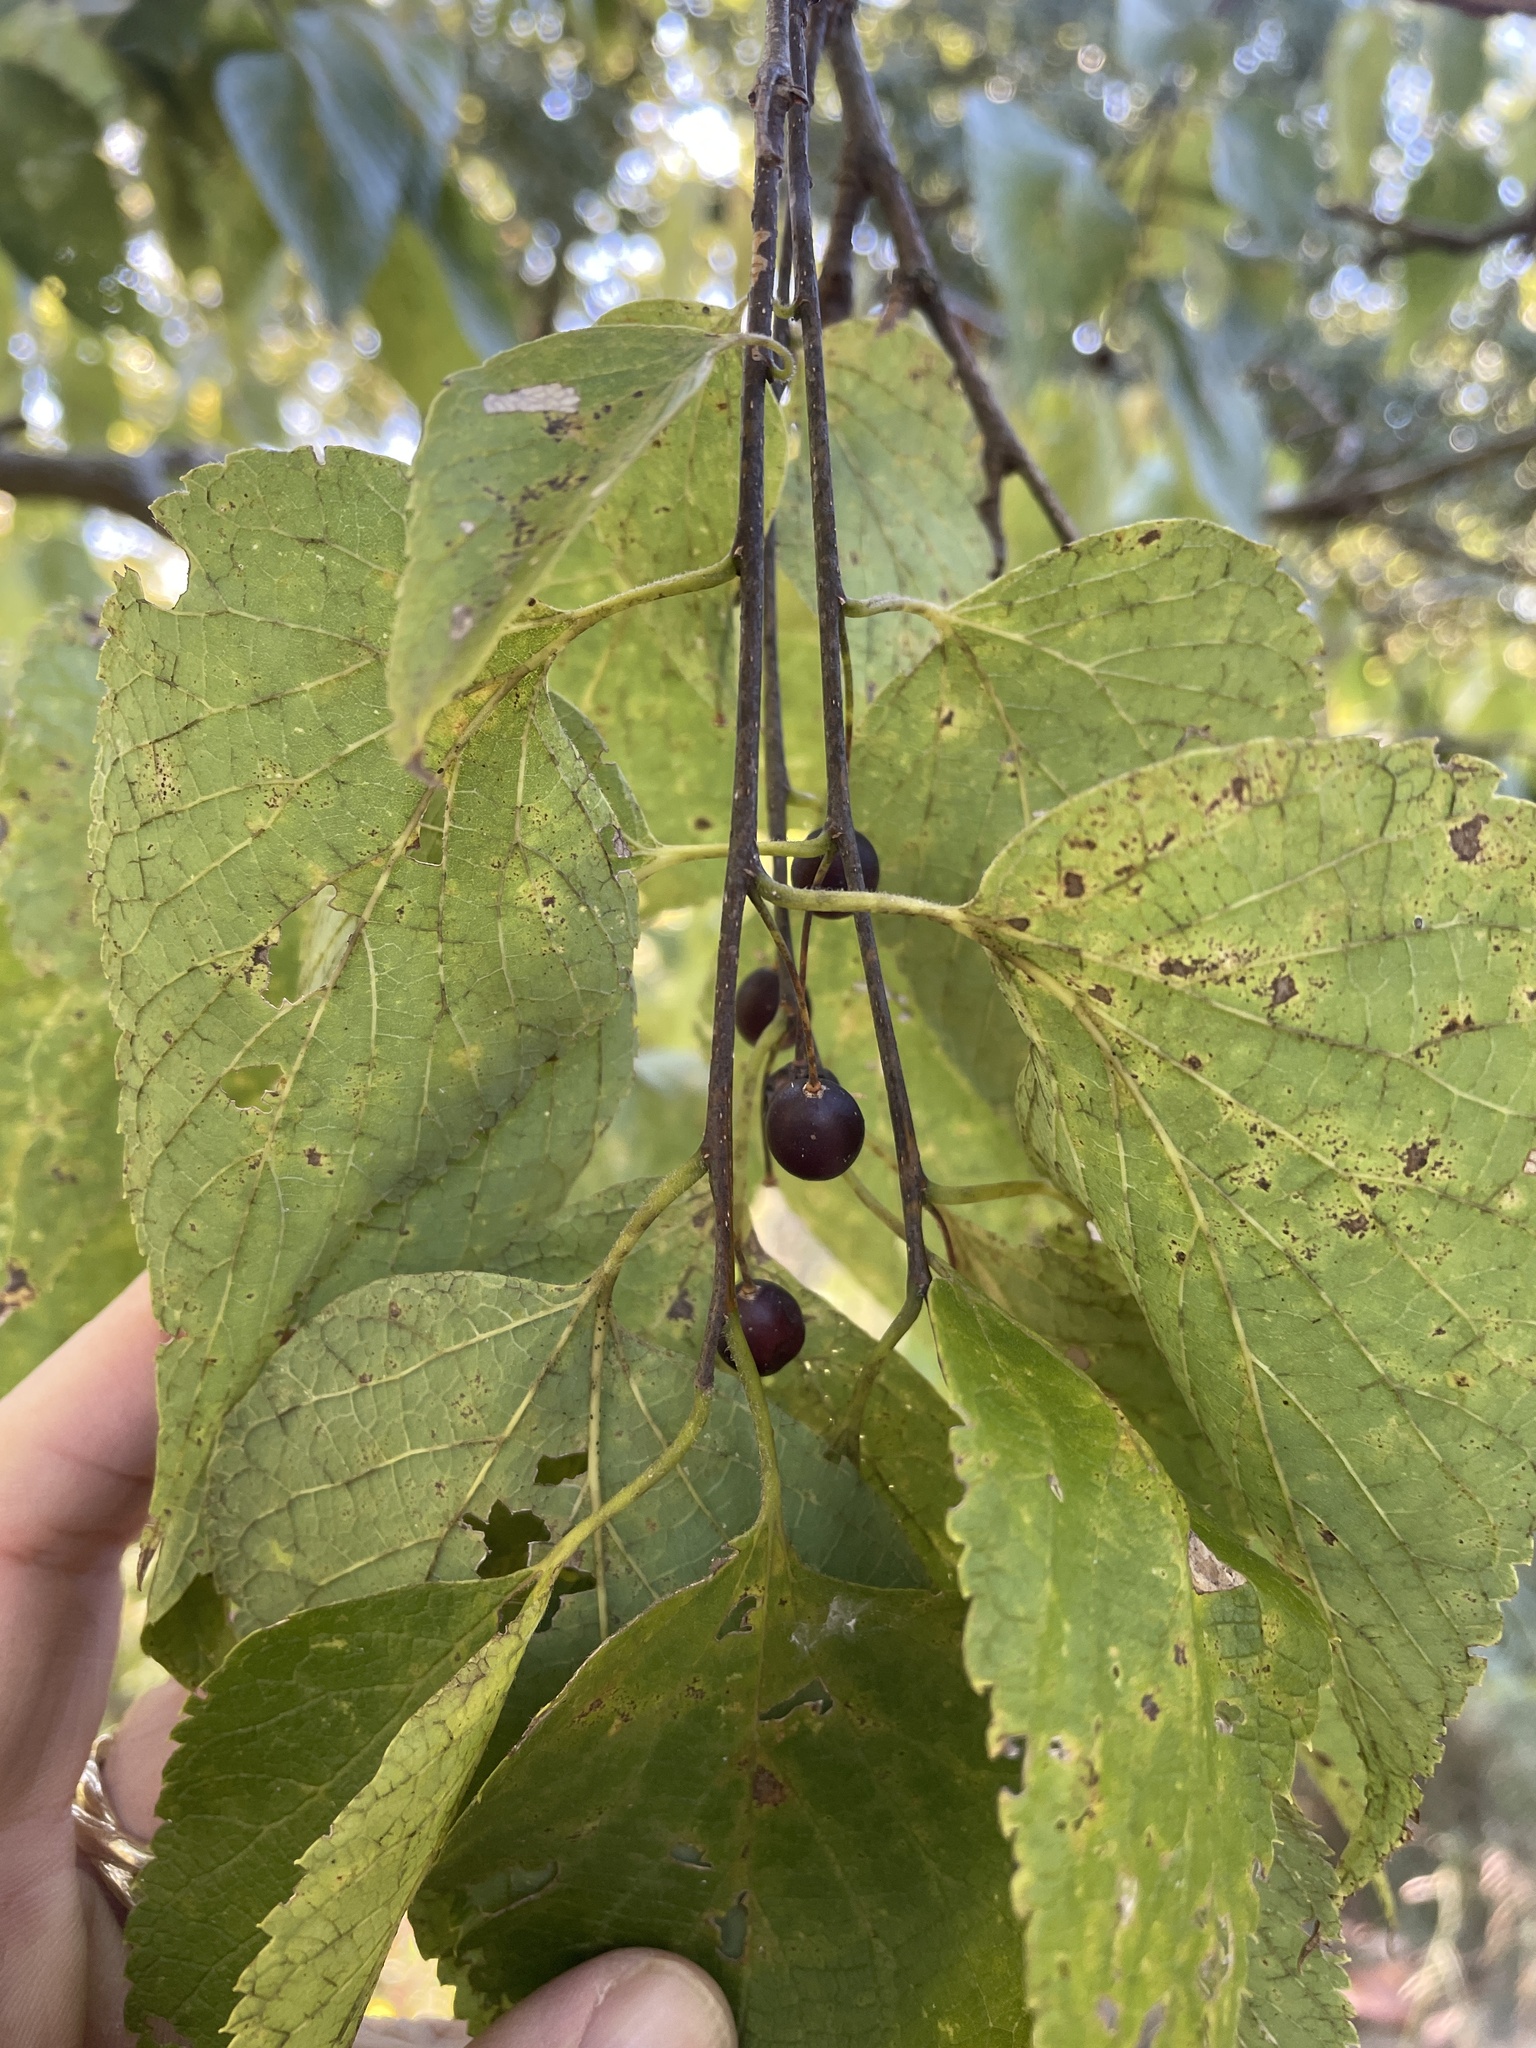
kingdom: Plantae
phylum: Tracheophyta
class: Magnoliopsida
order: Rosales
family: Cannabaceae
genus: Celtis
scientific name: Celtis occidentalis
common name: Common hackberry
